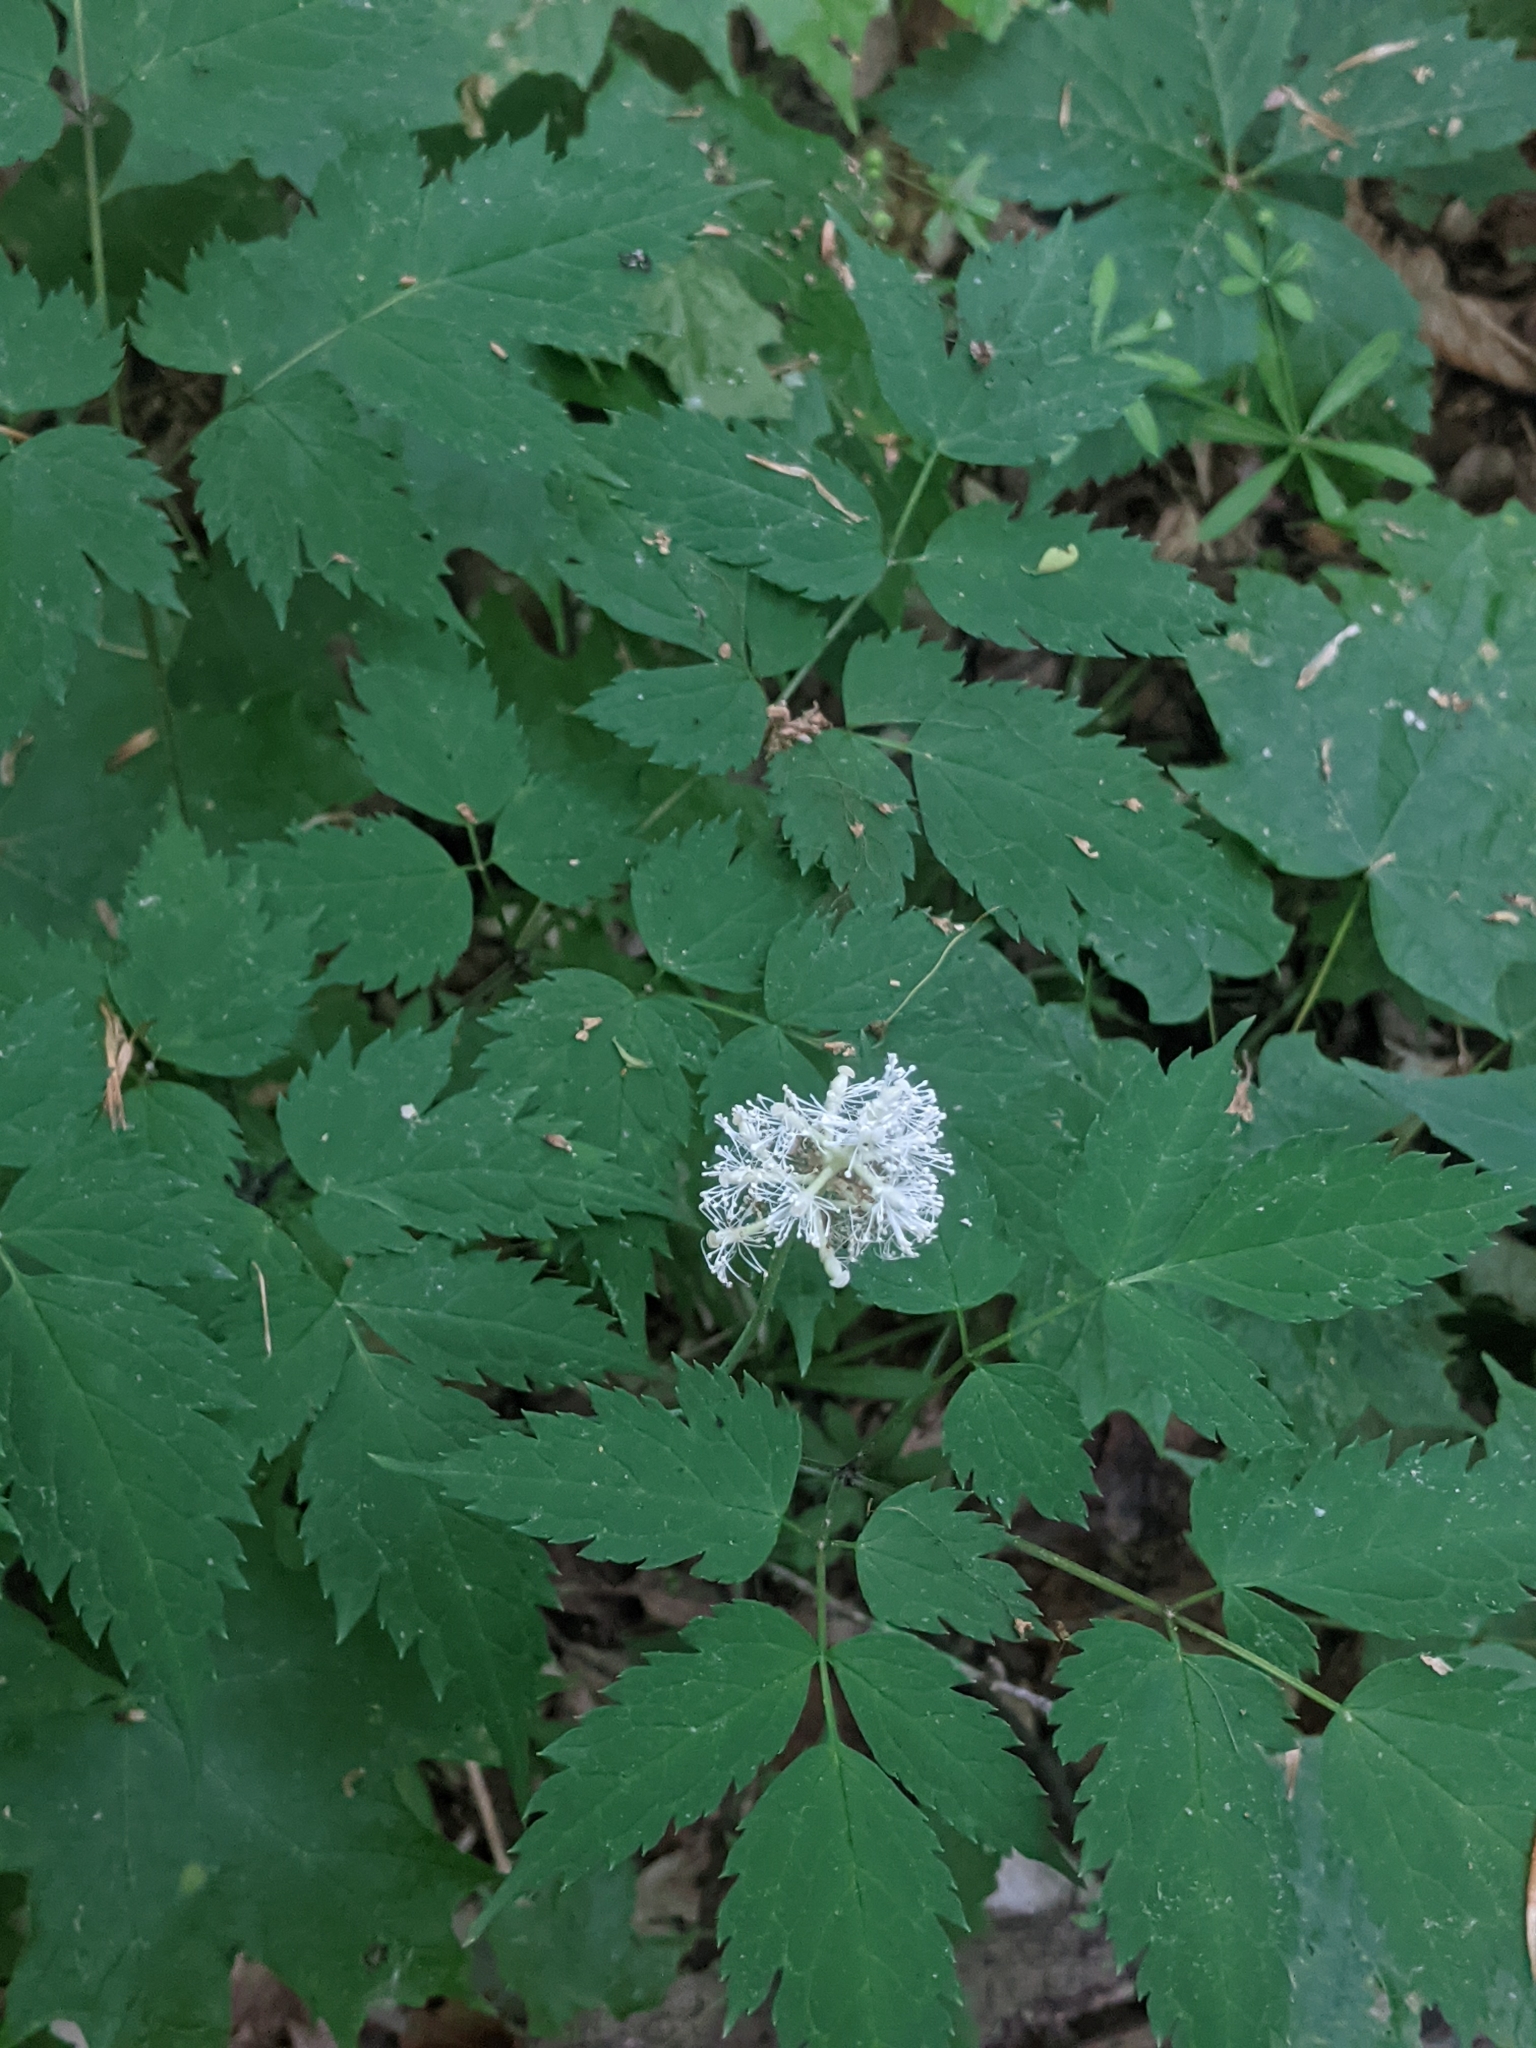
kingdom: Plantae
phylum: Tracheophyta
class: Magnoliopsida
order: Ranunculales
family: Ranunculaceae
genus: Actaea
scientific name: Actaea pachypoda
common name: Doll's-eyes
